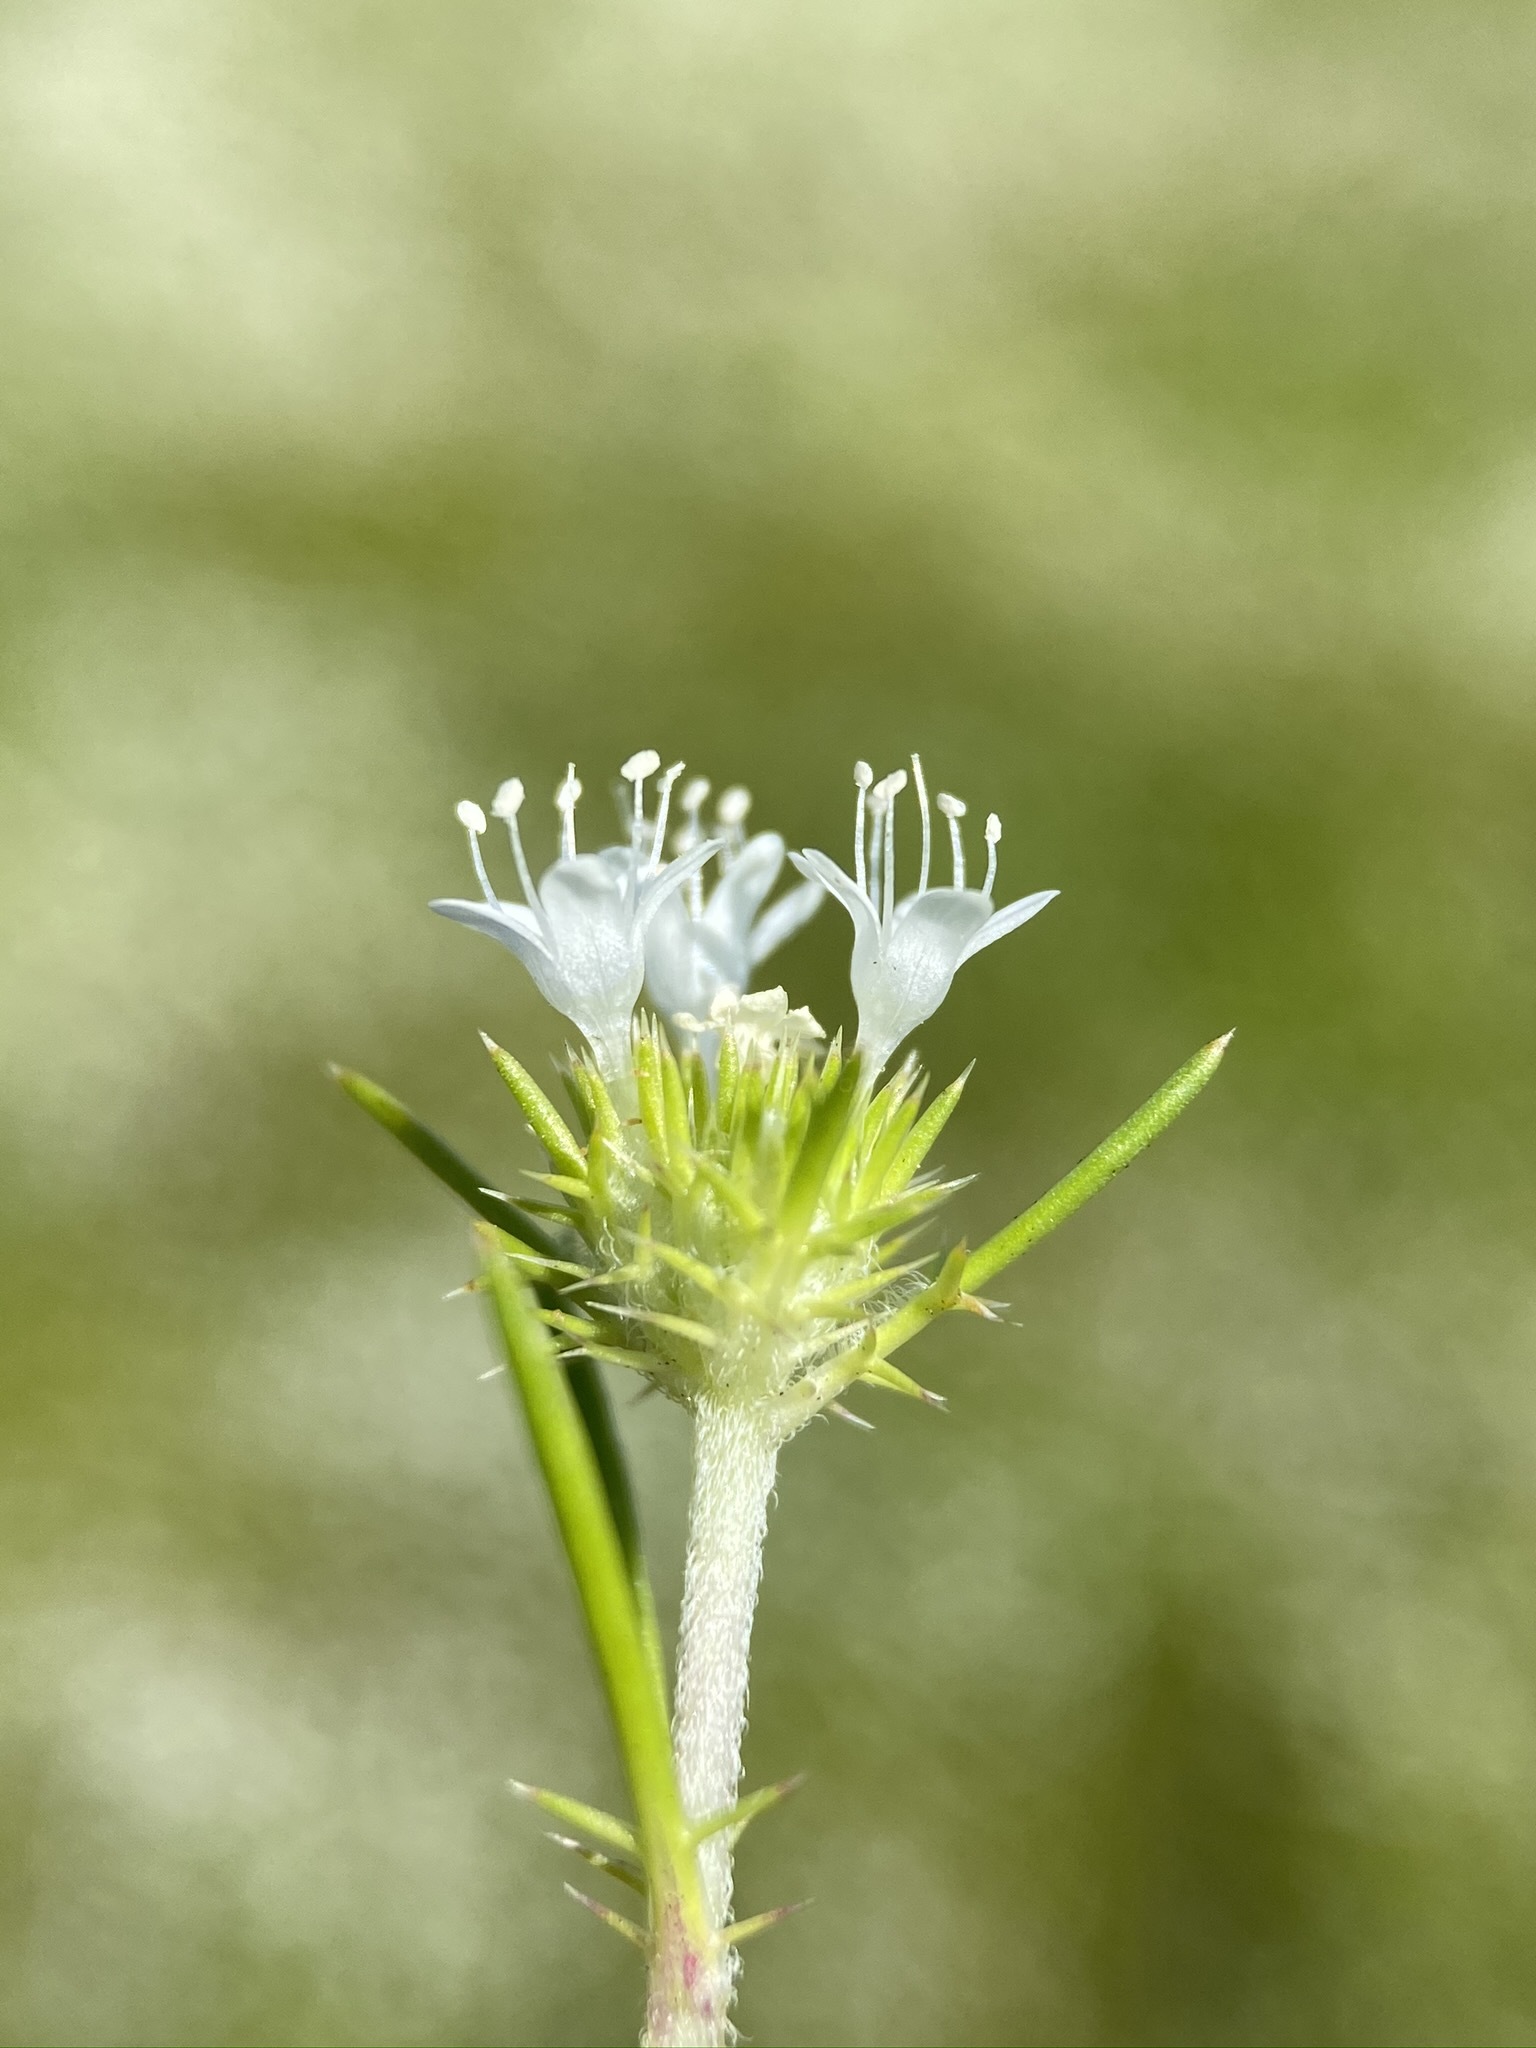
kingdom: Plantae
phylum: Tracheophyta
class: Magnoliopsida
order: Ericales
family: Polemoniaceae
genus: Navarretia
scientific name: Navarretia leucocephala
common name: White-flowered navarretia
